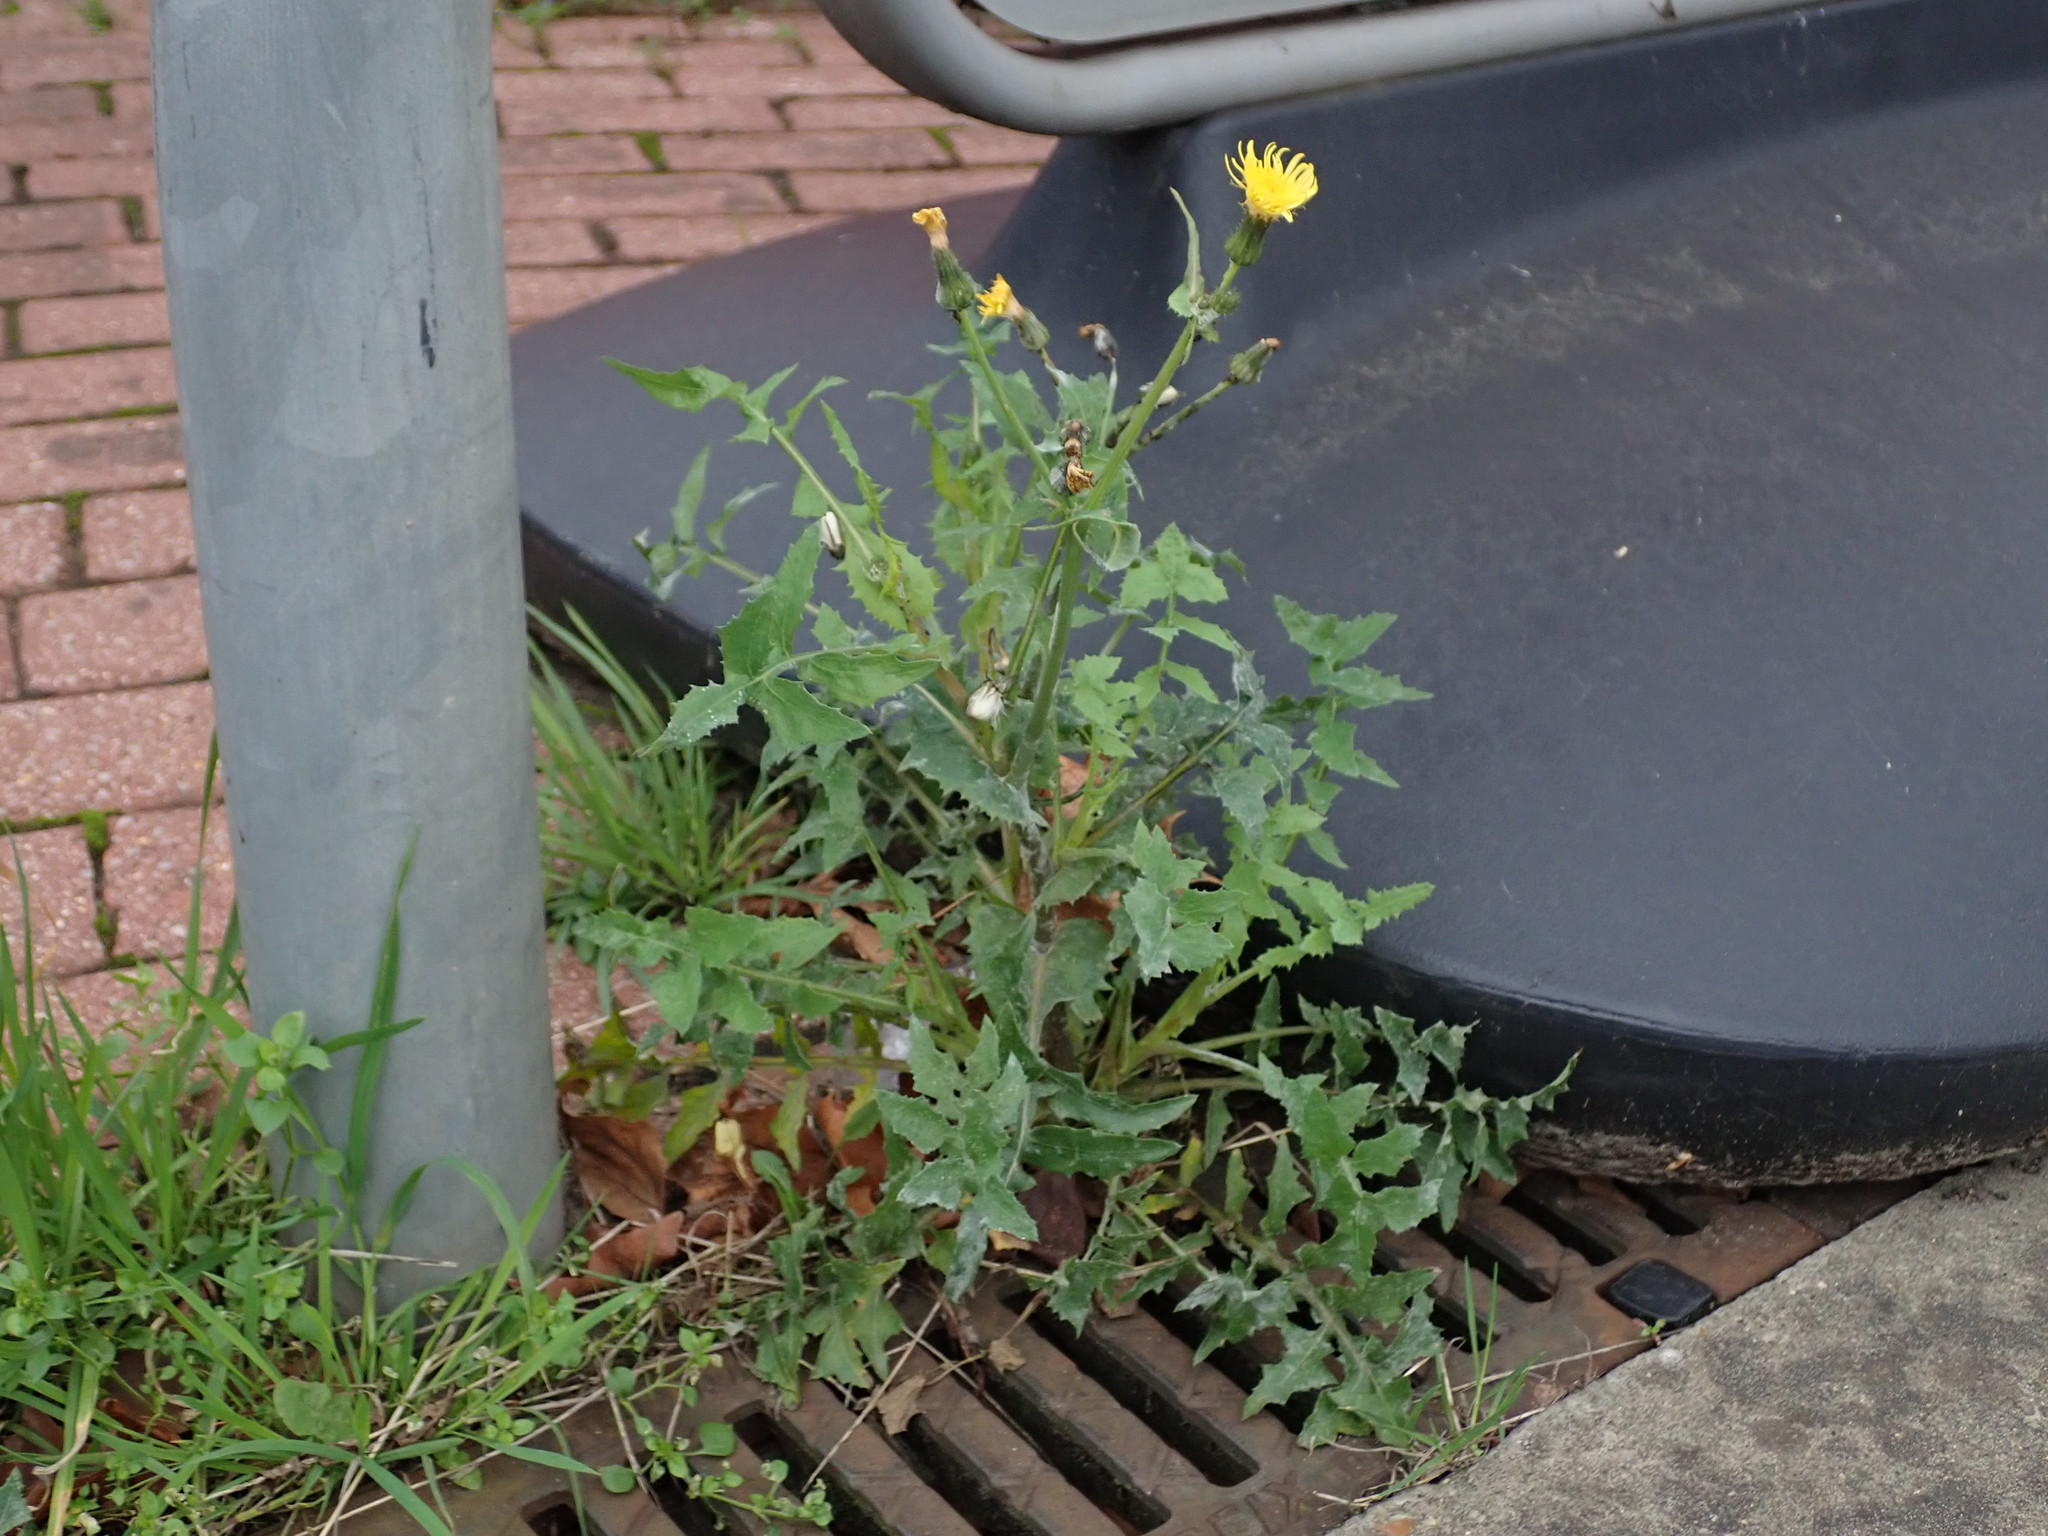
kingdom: Plantae
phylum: Tracheophyta
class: Magnoliopsida
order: Asterales
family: Asteraceae
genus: Sonchus
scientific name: Sonchus oleraceus
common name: Common sowthistle
